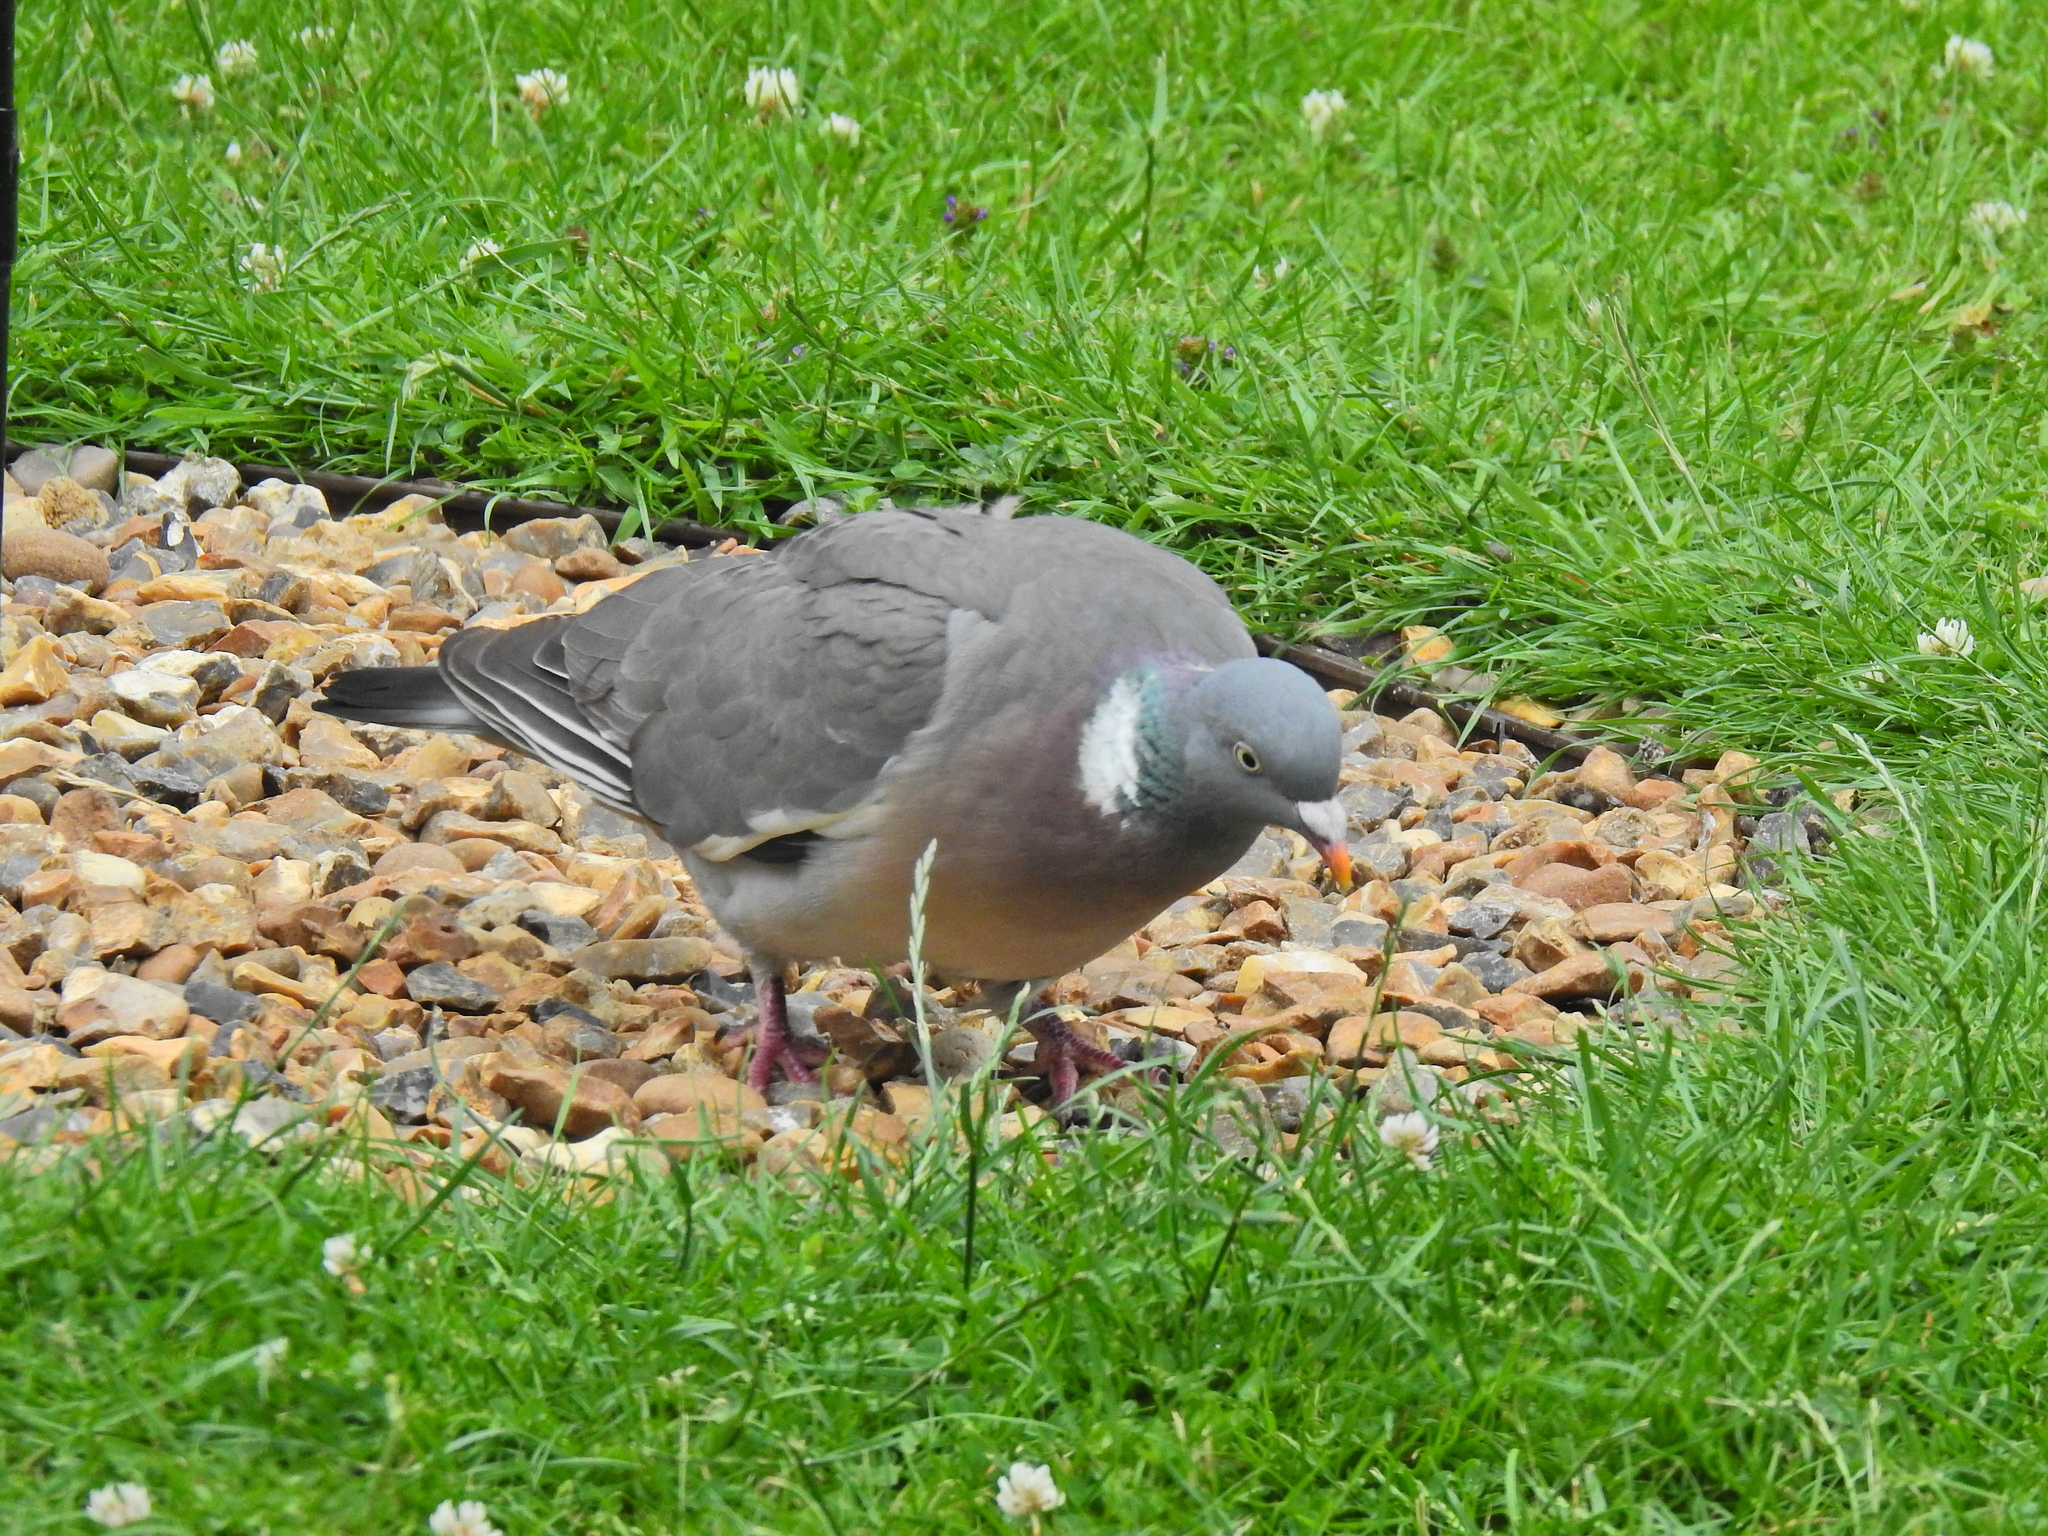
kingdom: Animalia
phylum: Chordata
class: Aves
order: Columbiformes
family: Columbidae
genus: Columba
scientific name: Columba palumbus
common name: Common wood pigeon
